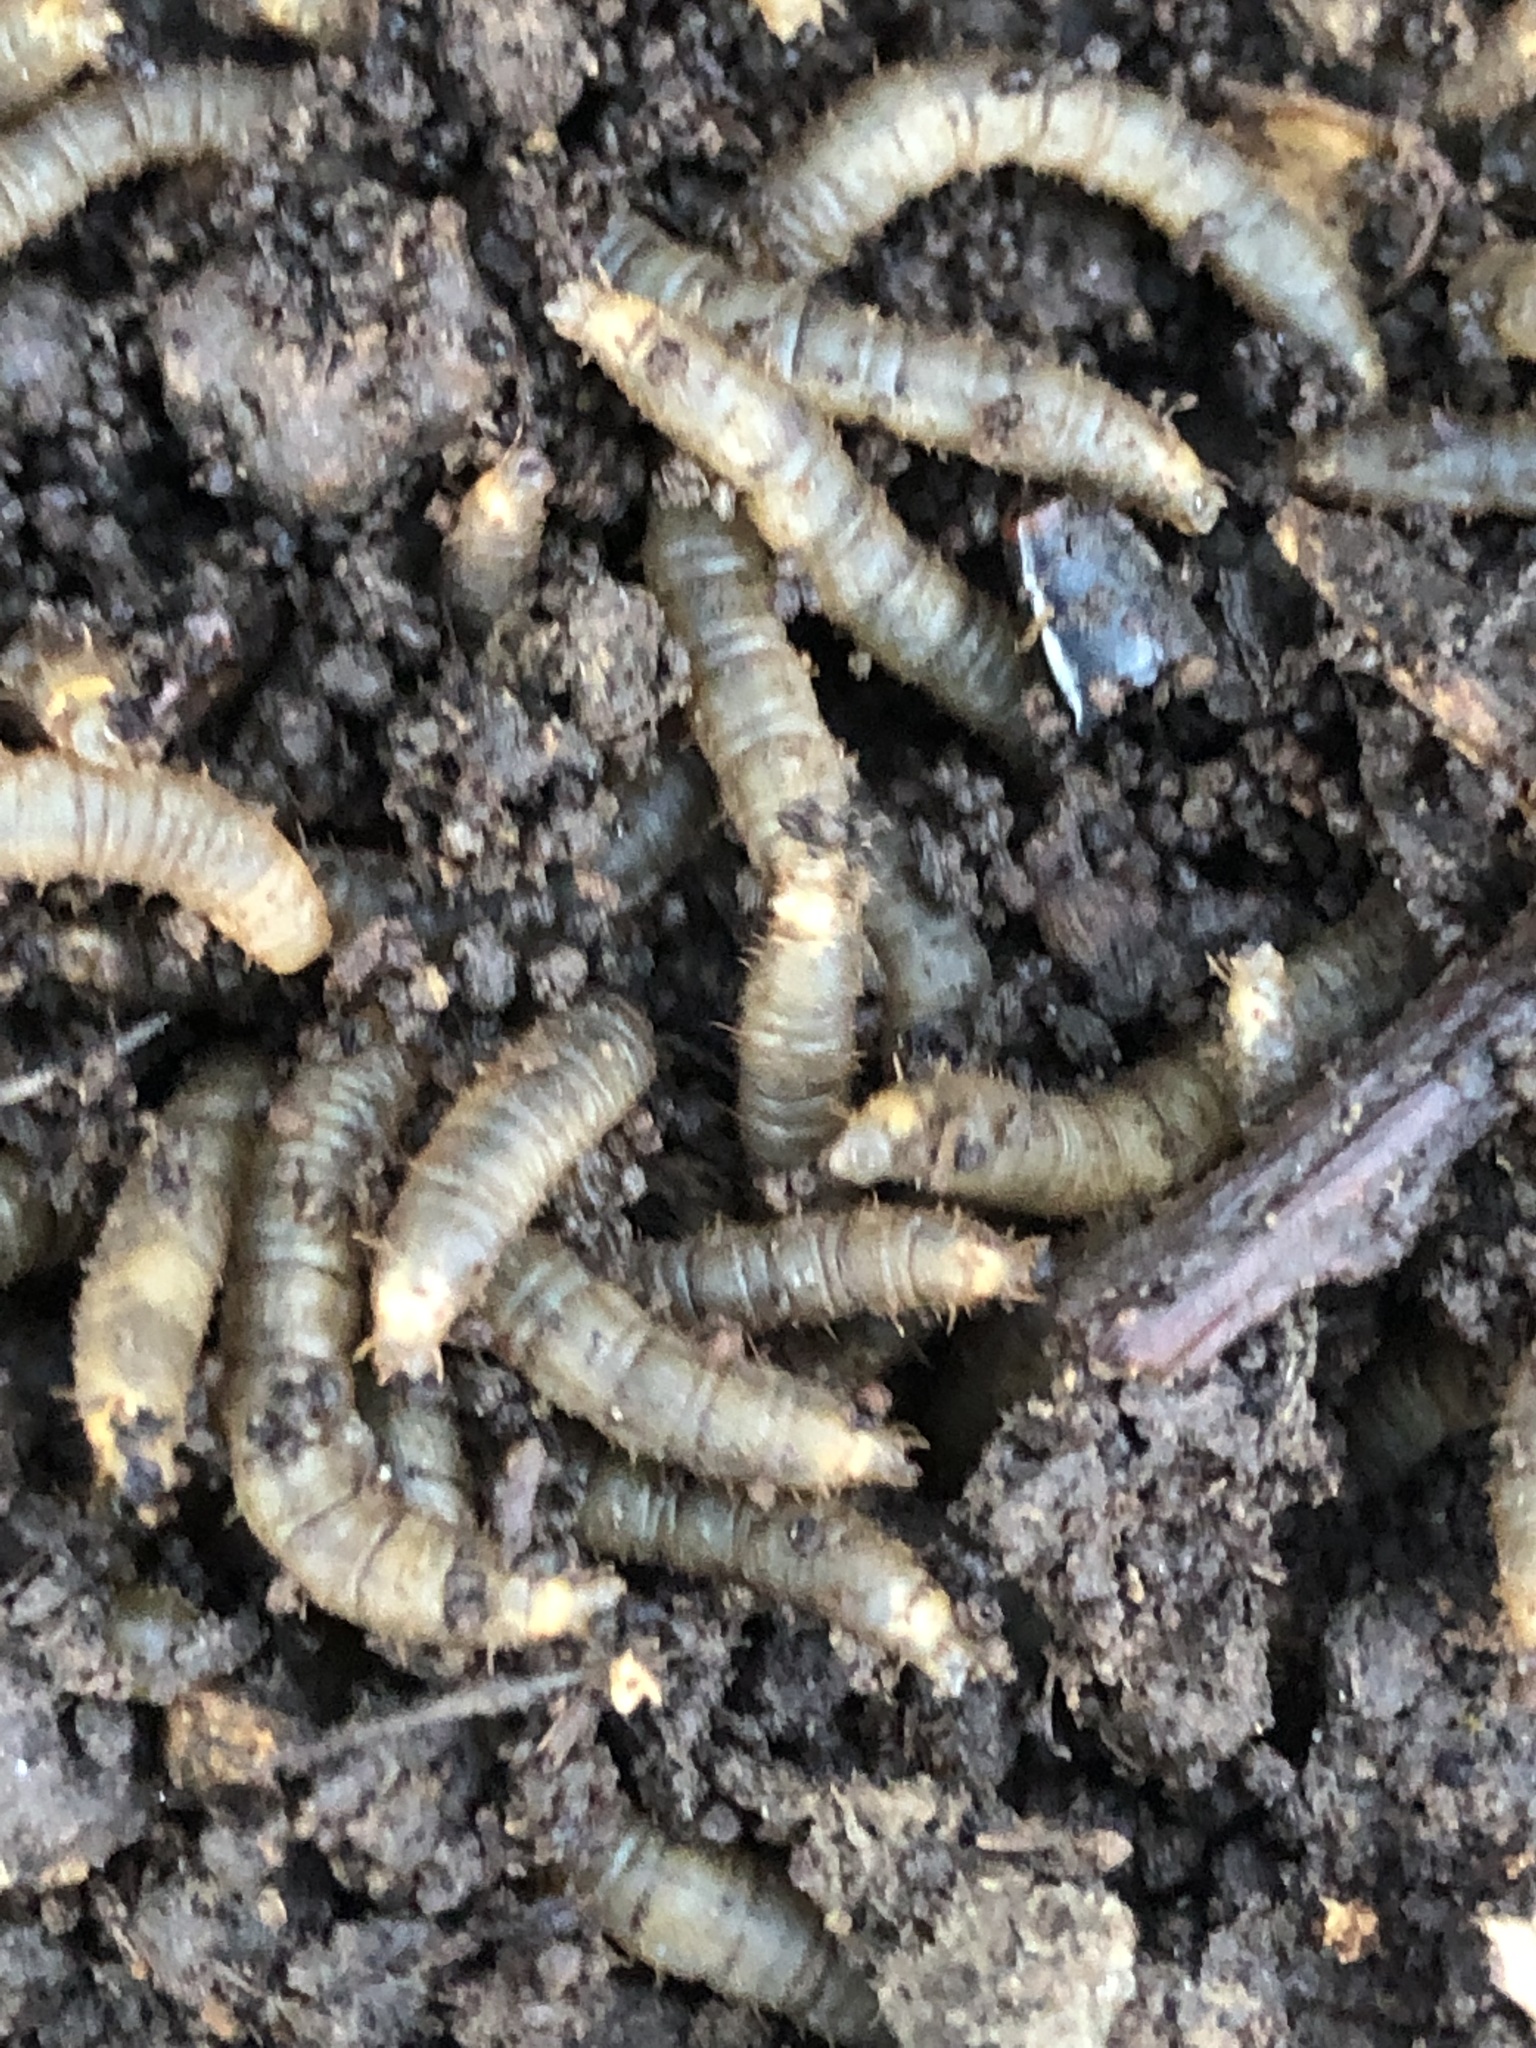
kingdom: Animalia
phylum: Arthropoda
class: Insecta
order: Diptera
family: Bibionidae
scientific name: Bibionidae
